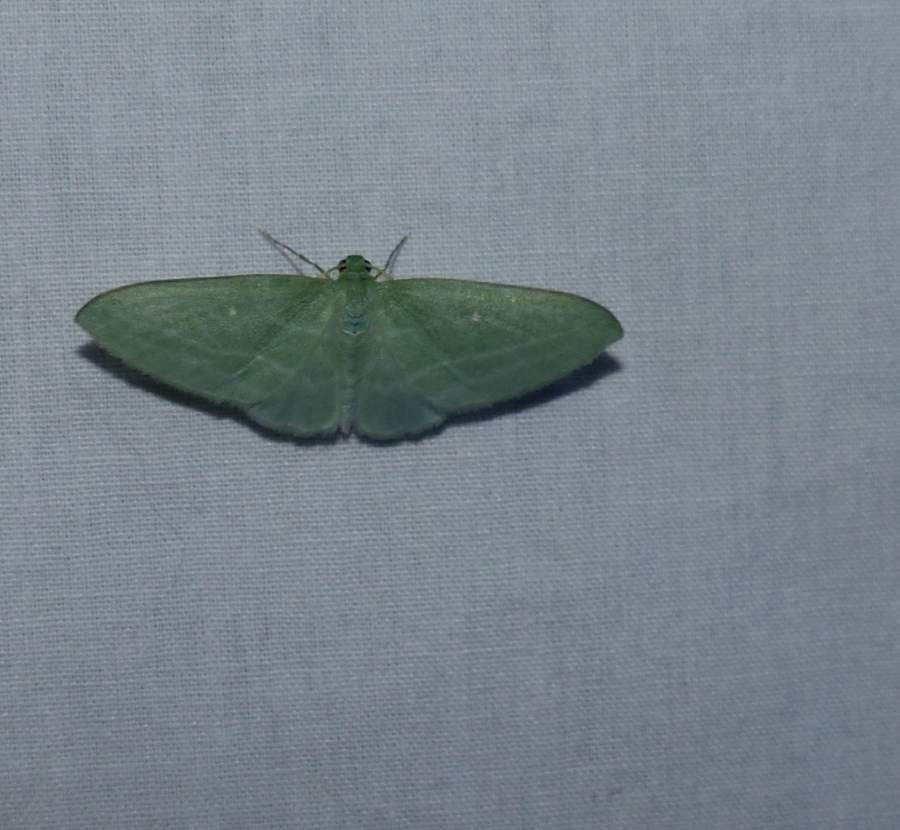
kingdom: Animalia
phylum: Arthropoda
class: Insecta
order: Lepidoptera
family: Geometridae
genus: Dyspteris
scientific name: Dyspteris abortivaria
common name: Bad-wing
